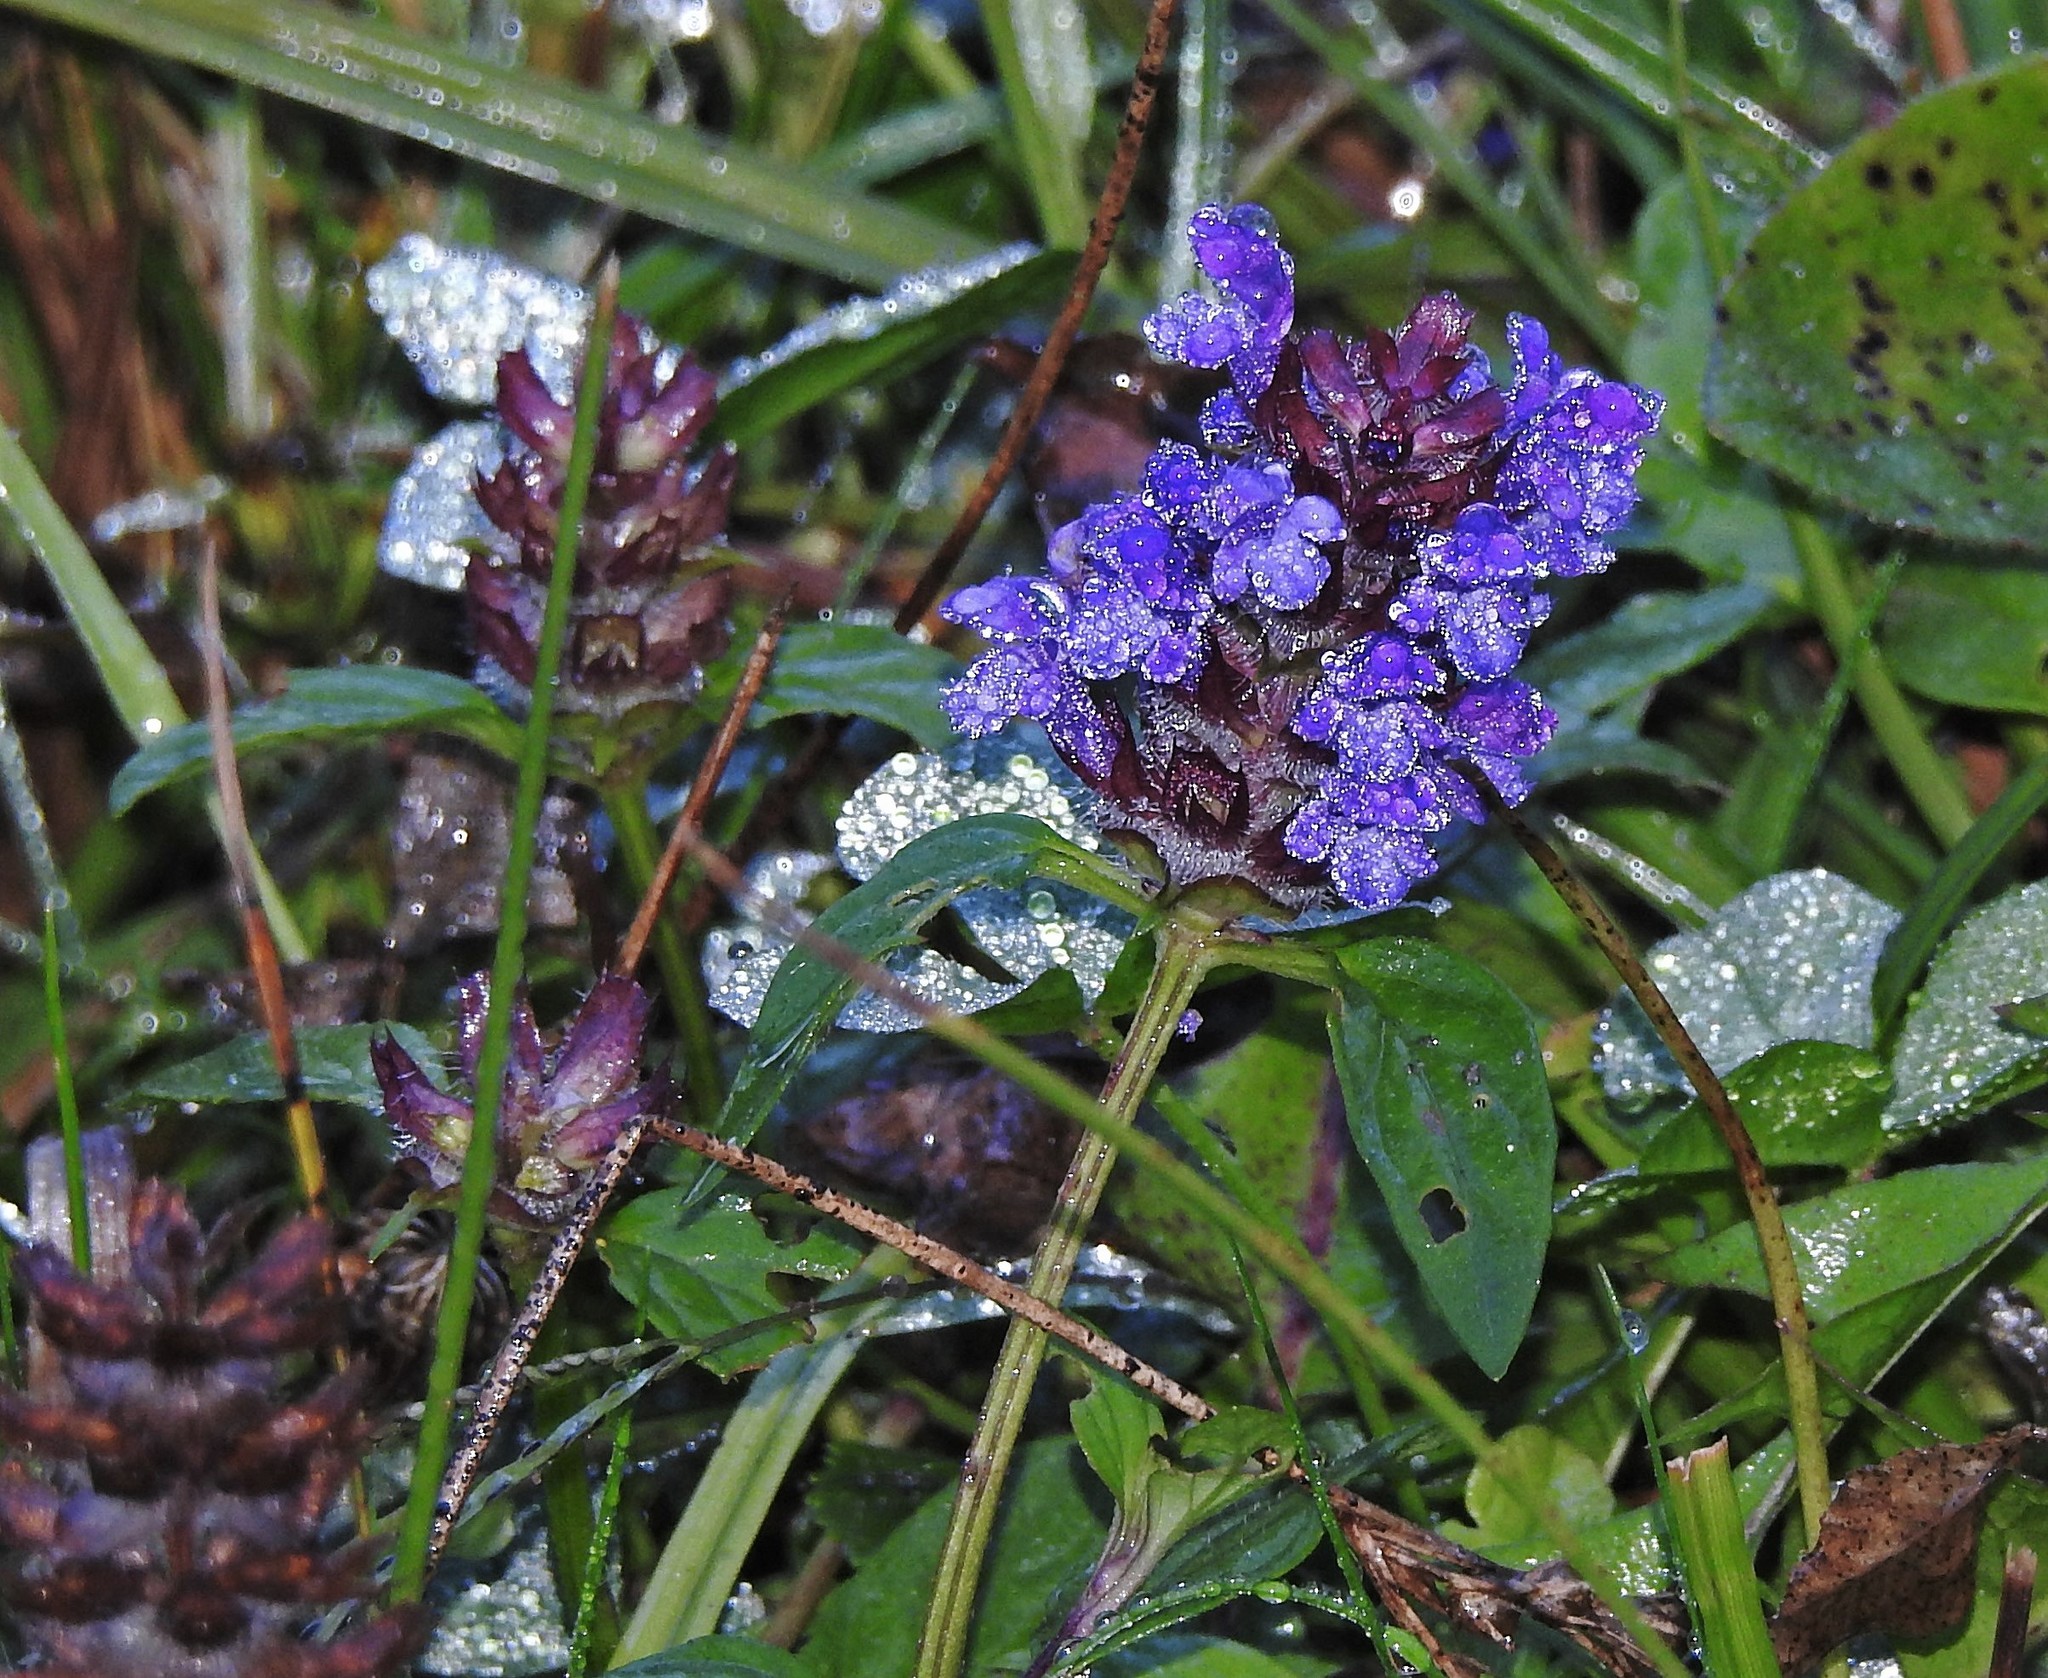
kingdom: Plantae
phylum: Tracheophyta
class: Magnoliopsida
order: Lamiales
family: Lamiaceae
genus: Prunella
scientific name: Prunella vulgaris
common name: Heal-all
